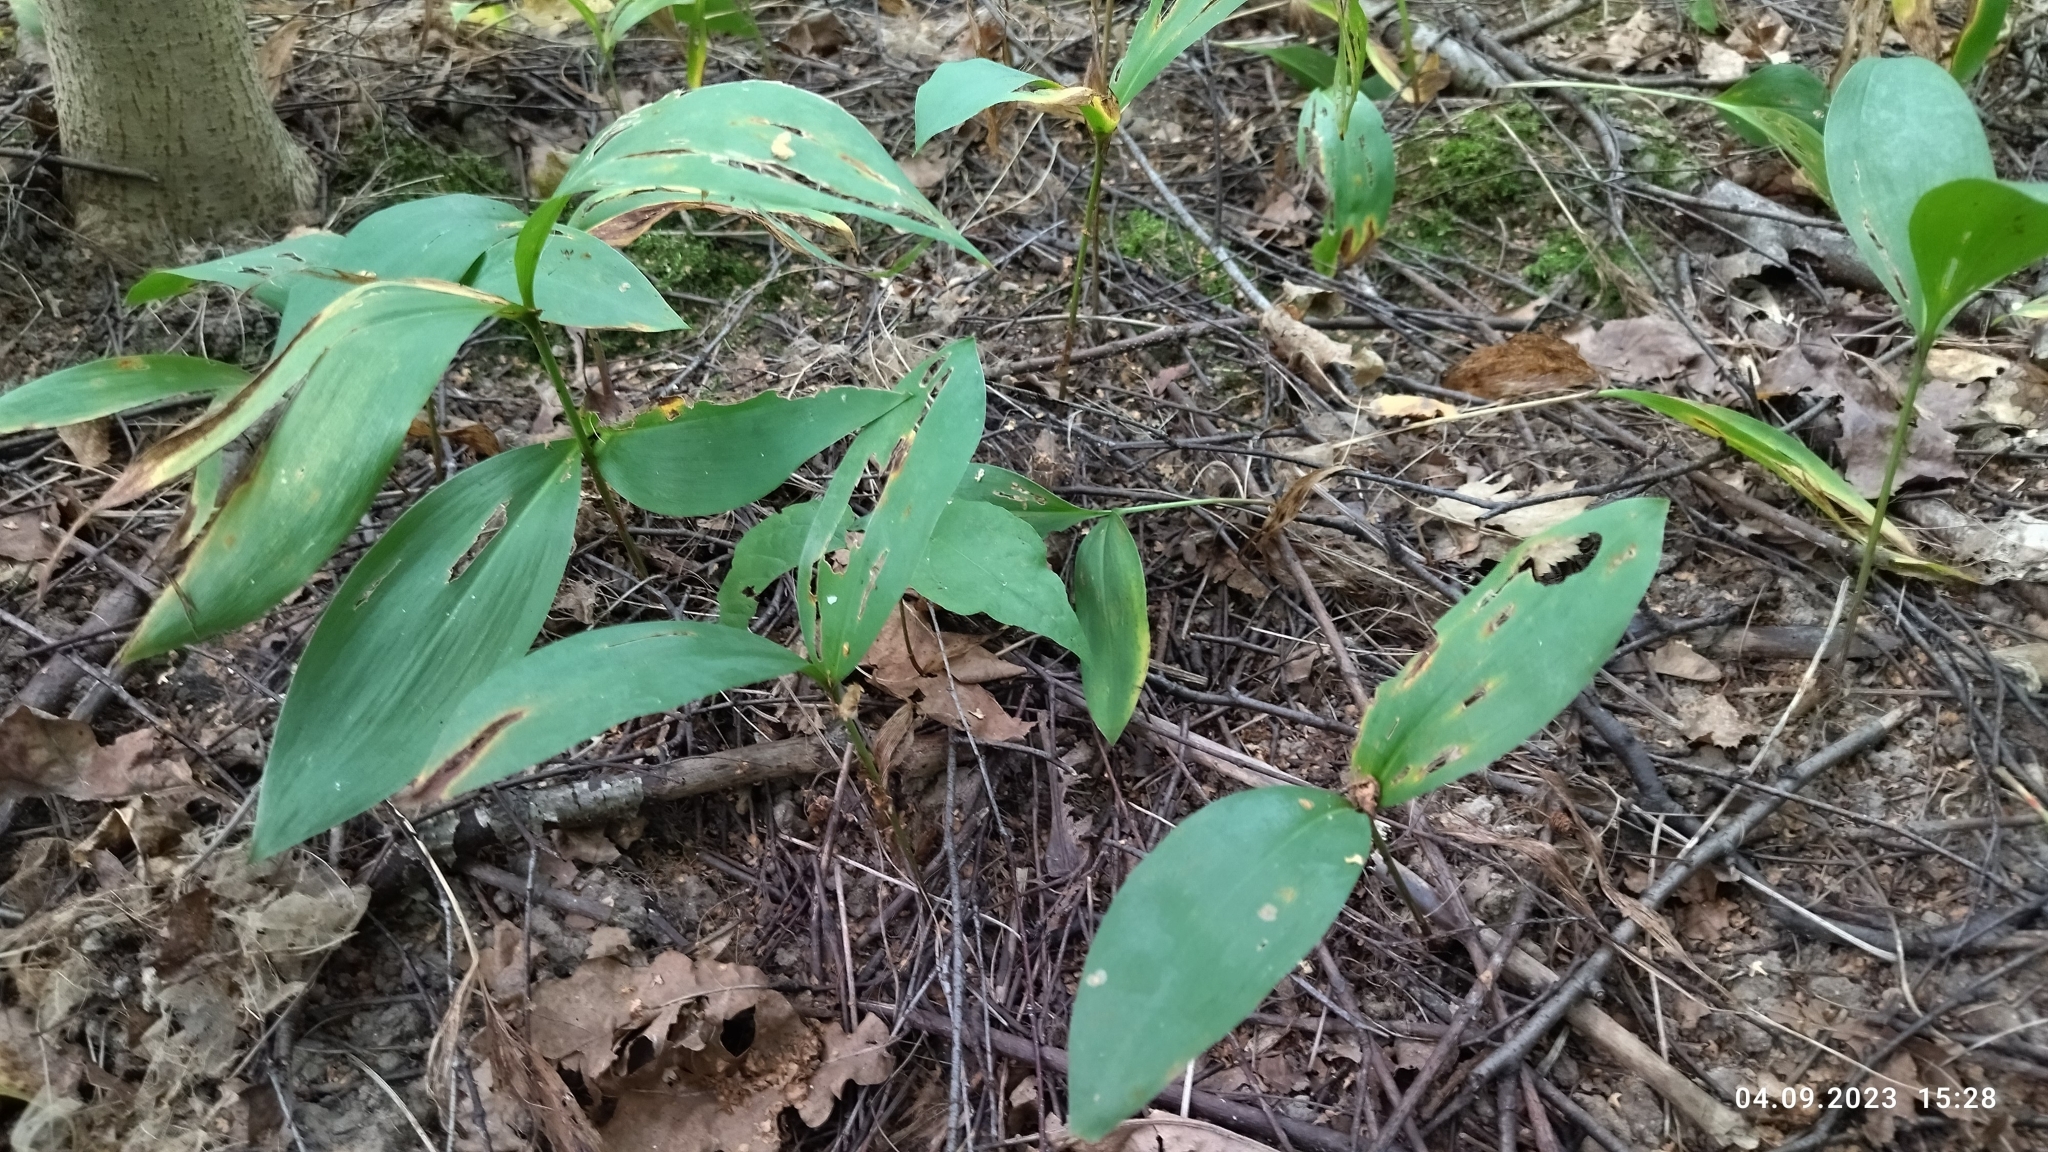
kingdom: Plantae
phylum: Tracheophyta
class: Liliopsida
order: Asparagales
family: Asparagaceae
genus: Convallaria
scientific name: Convallaria majalis
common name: Lily-of-the-valley
